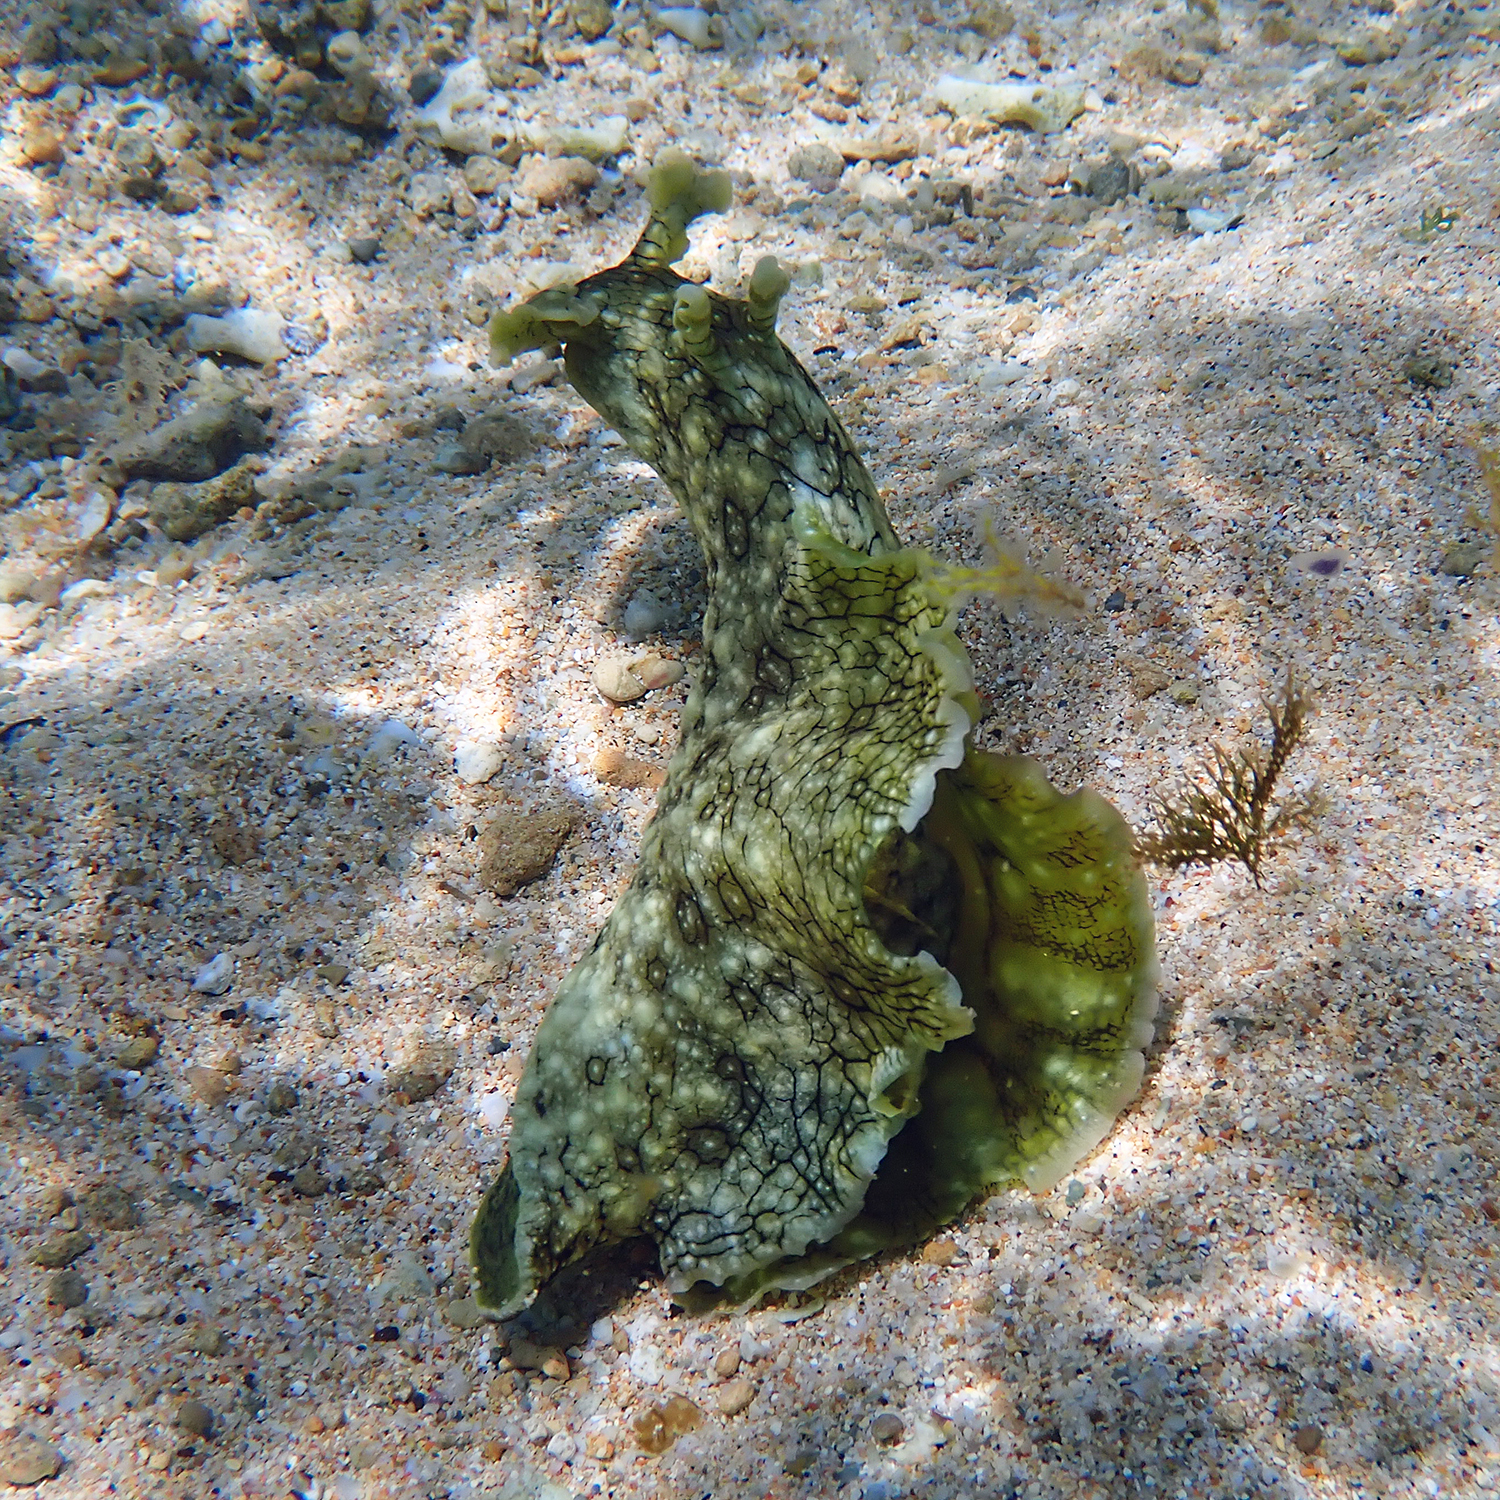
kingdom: Animalia
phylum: Mollusca
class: Gastropoda
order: Aplysiida
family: Aplysiidae
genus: Aplysia
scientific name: Aplysia argus
